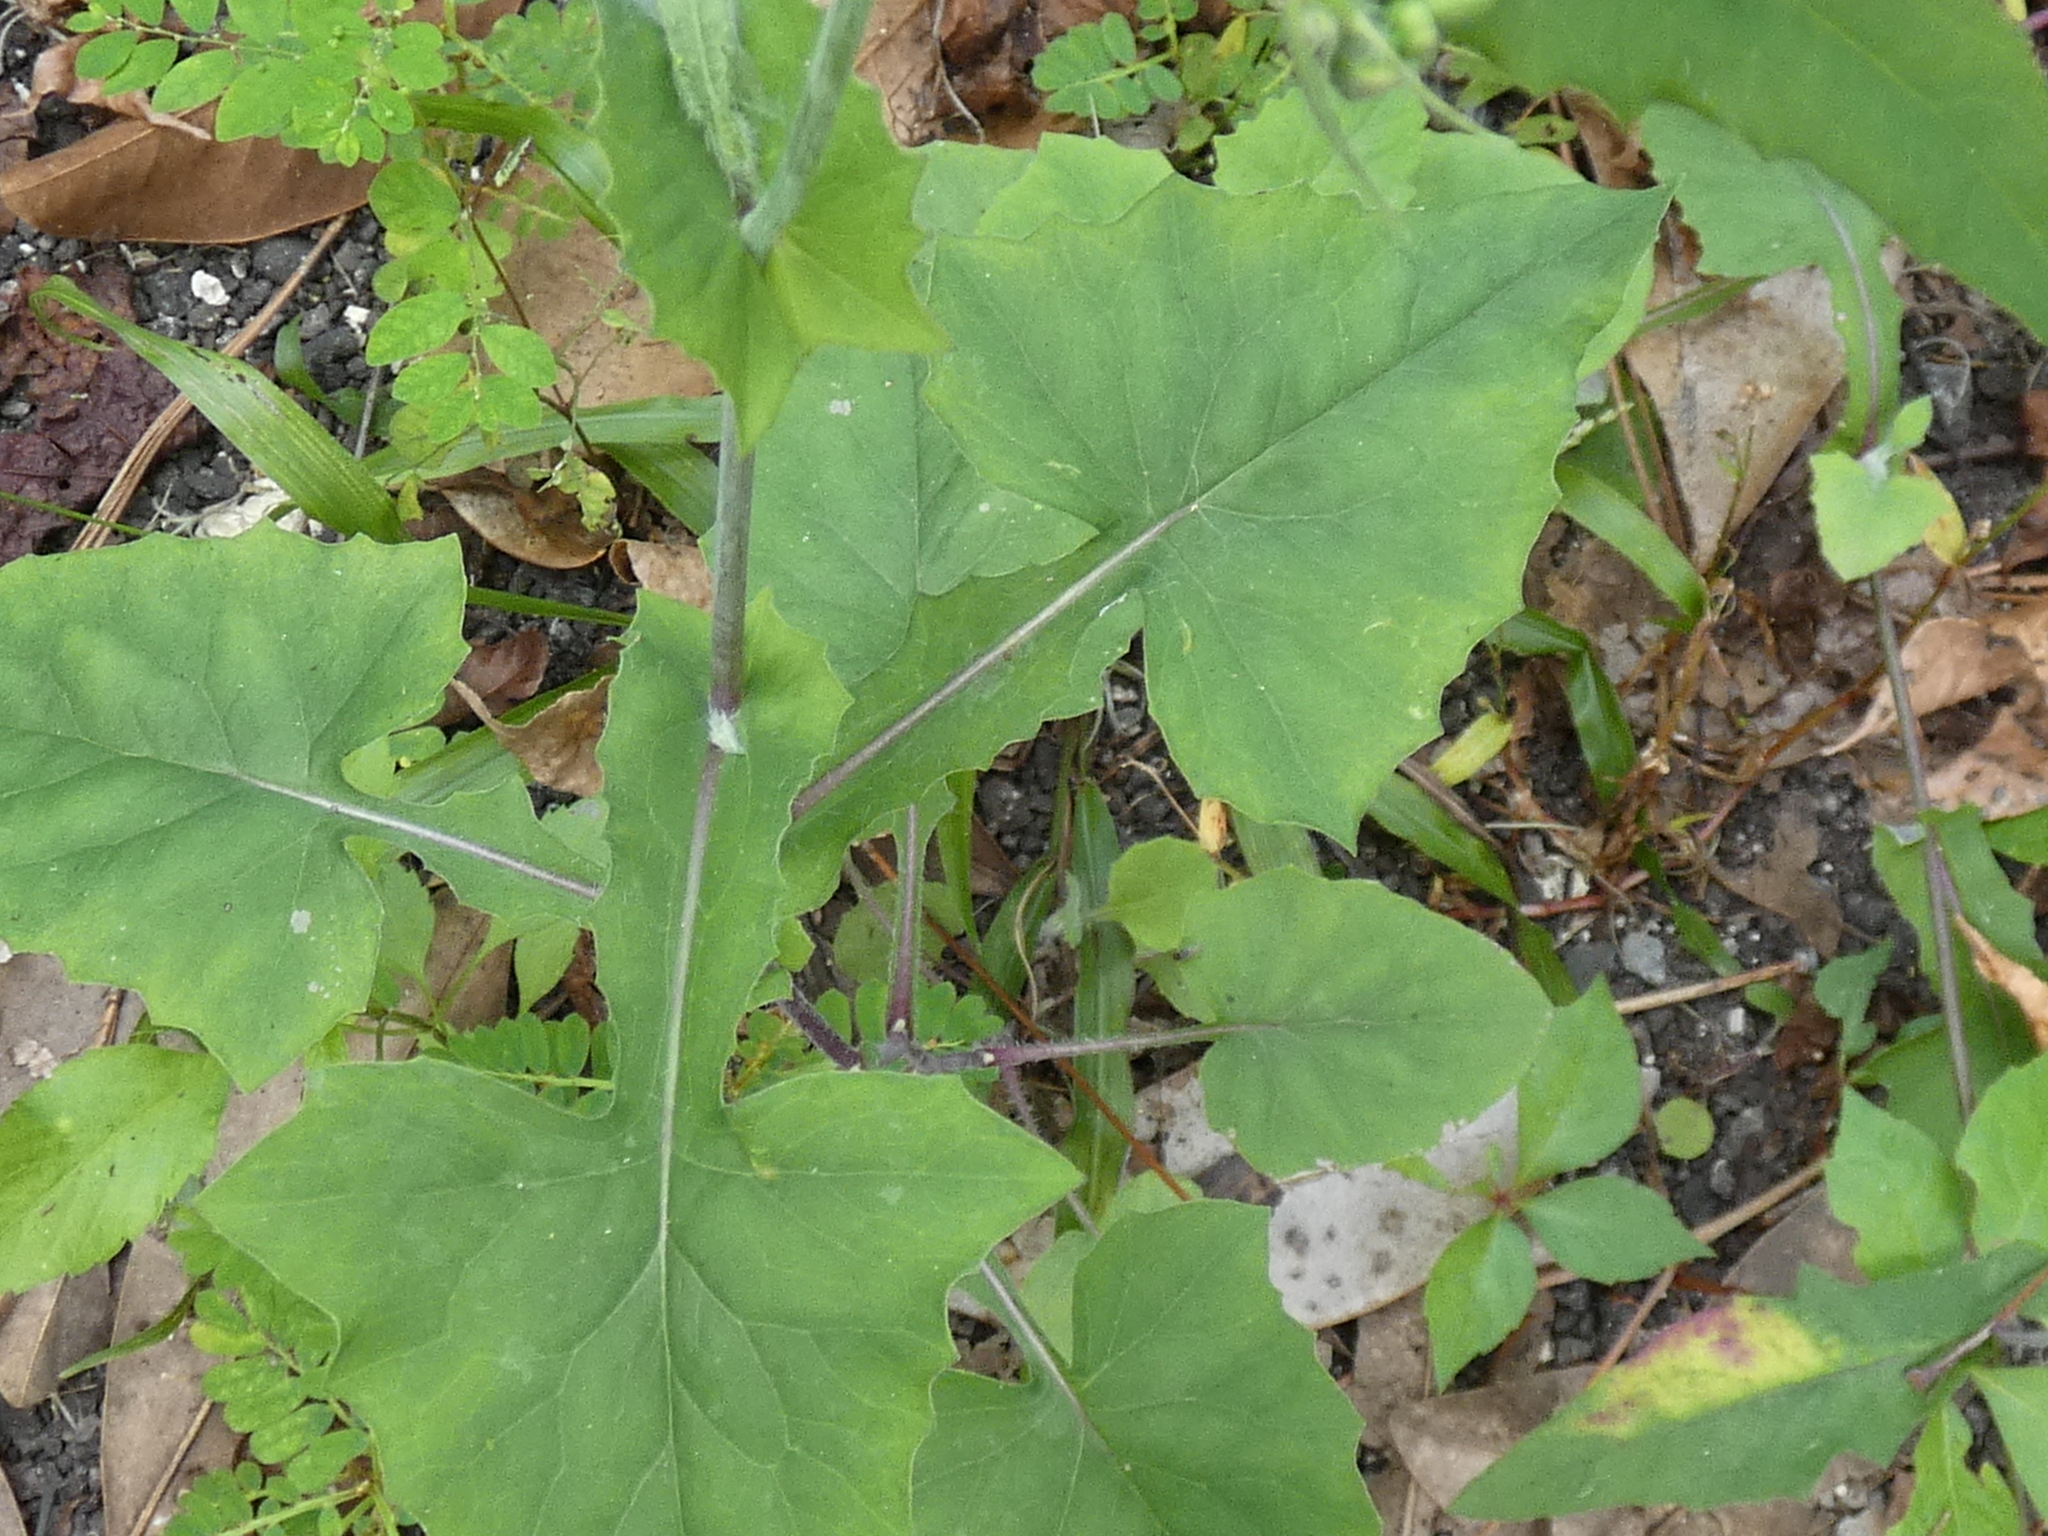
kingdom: Plantae
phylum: Tracheophyta
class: Magnoliopsida
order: Asterales
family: Asteraceae
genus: Emilia
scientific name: Emilia sonchifolia
